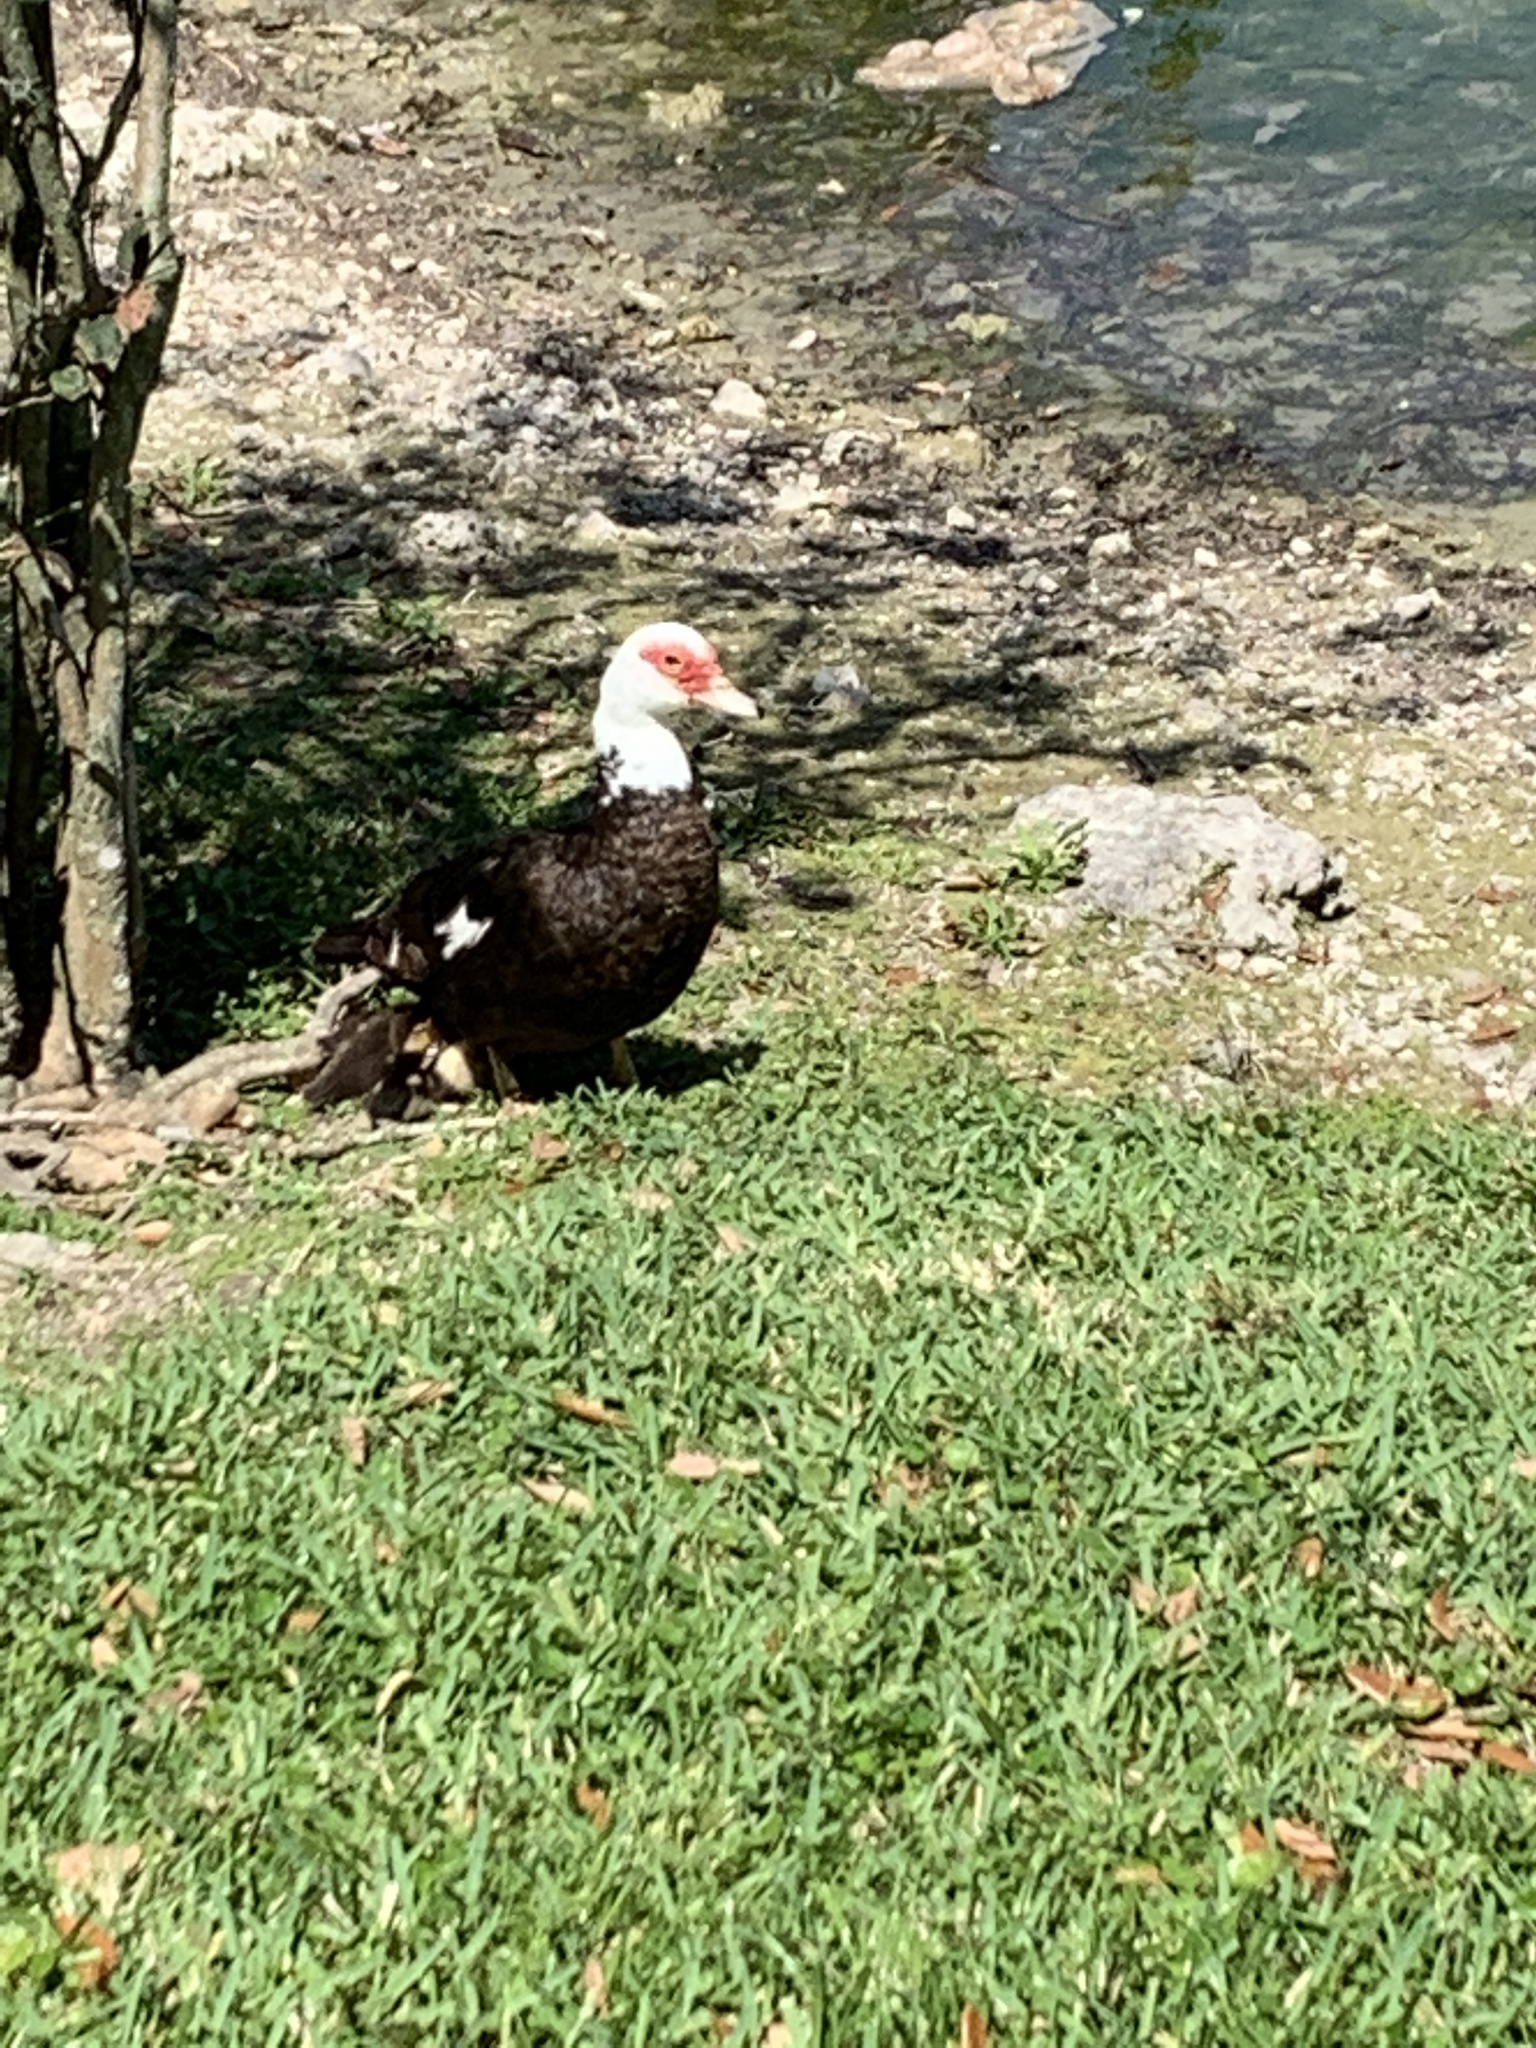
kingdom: Animalia
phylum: Chordata
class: Aves
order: Anseriformes
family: Anatidae
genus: Cairina
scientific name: Cairina moschata
